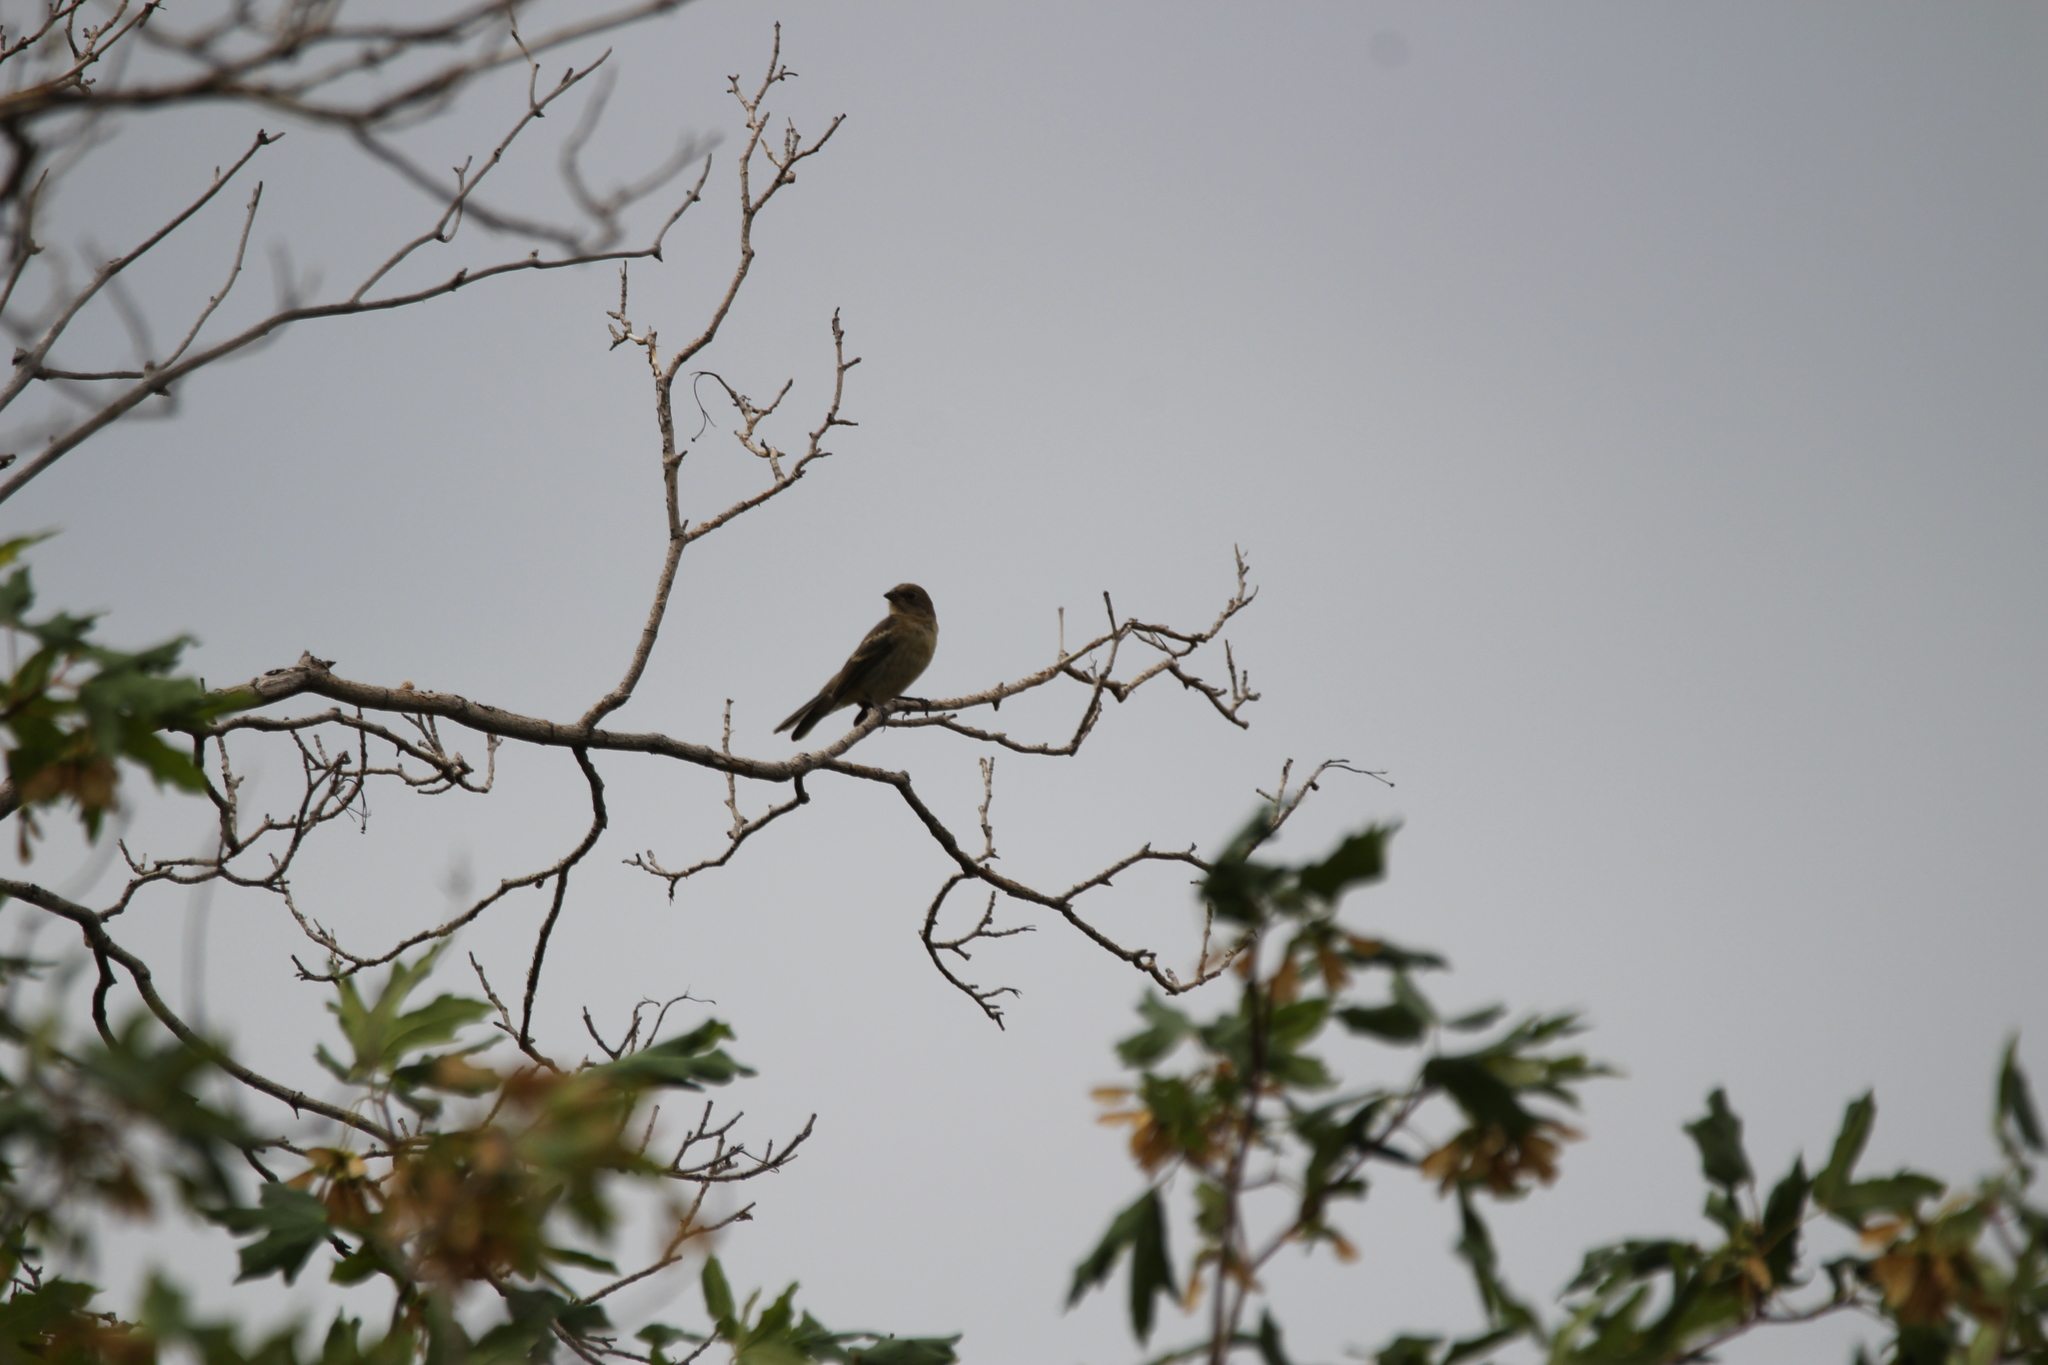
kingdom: Animalia
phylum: Chordata
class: Aves
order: Passeriformes
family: Cardinalidae
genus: Passerina
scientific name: Passerina amoena
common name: Lazuli bunting
